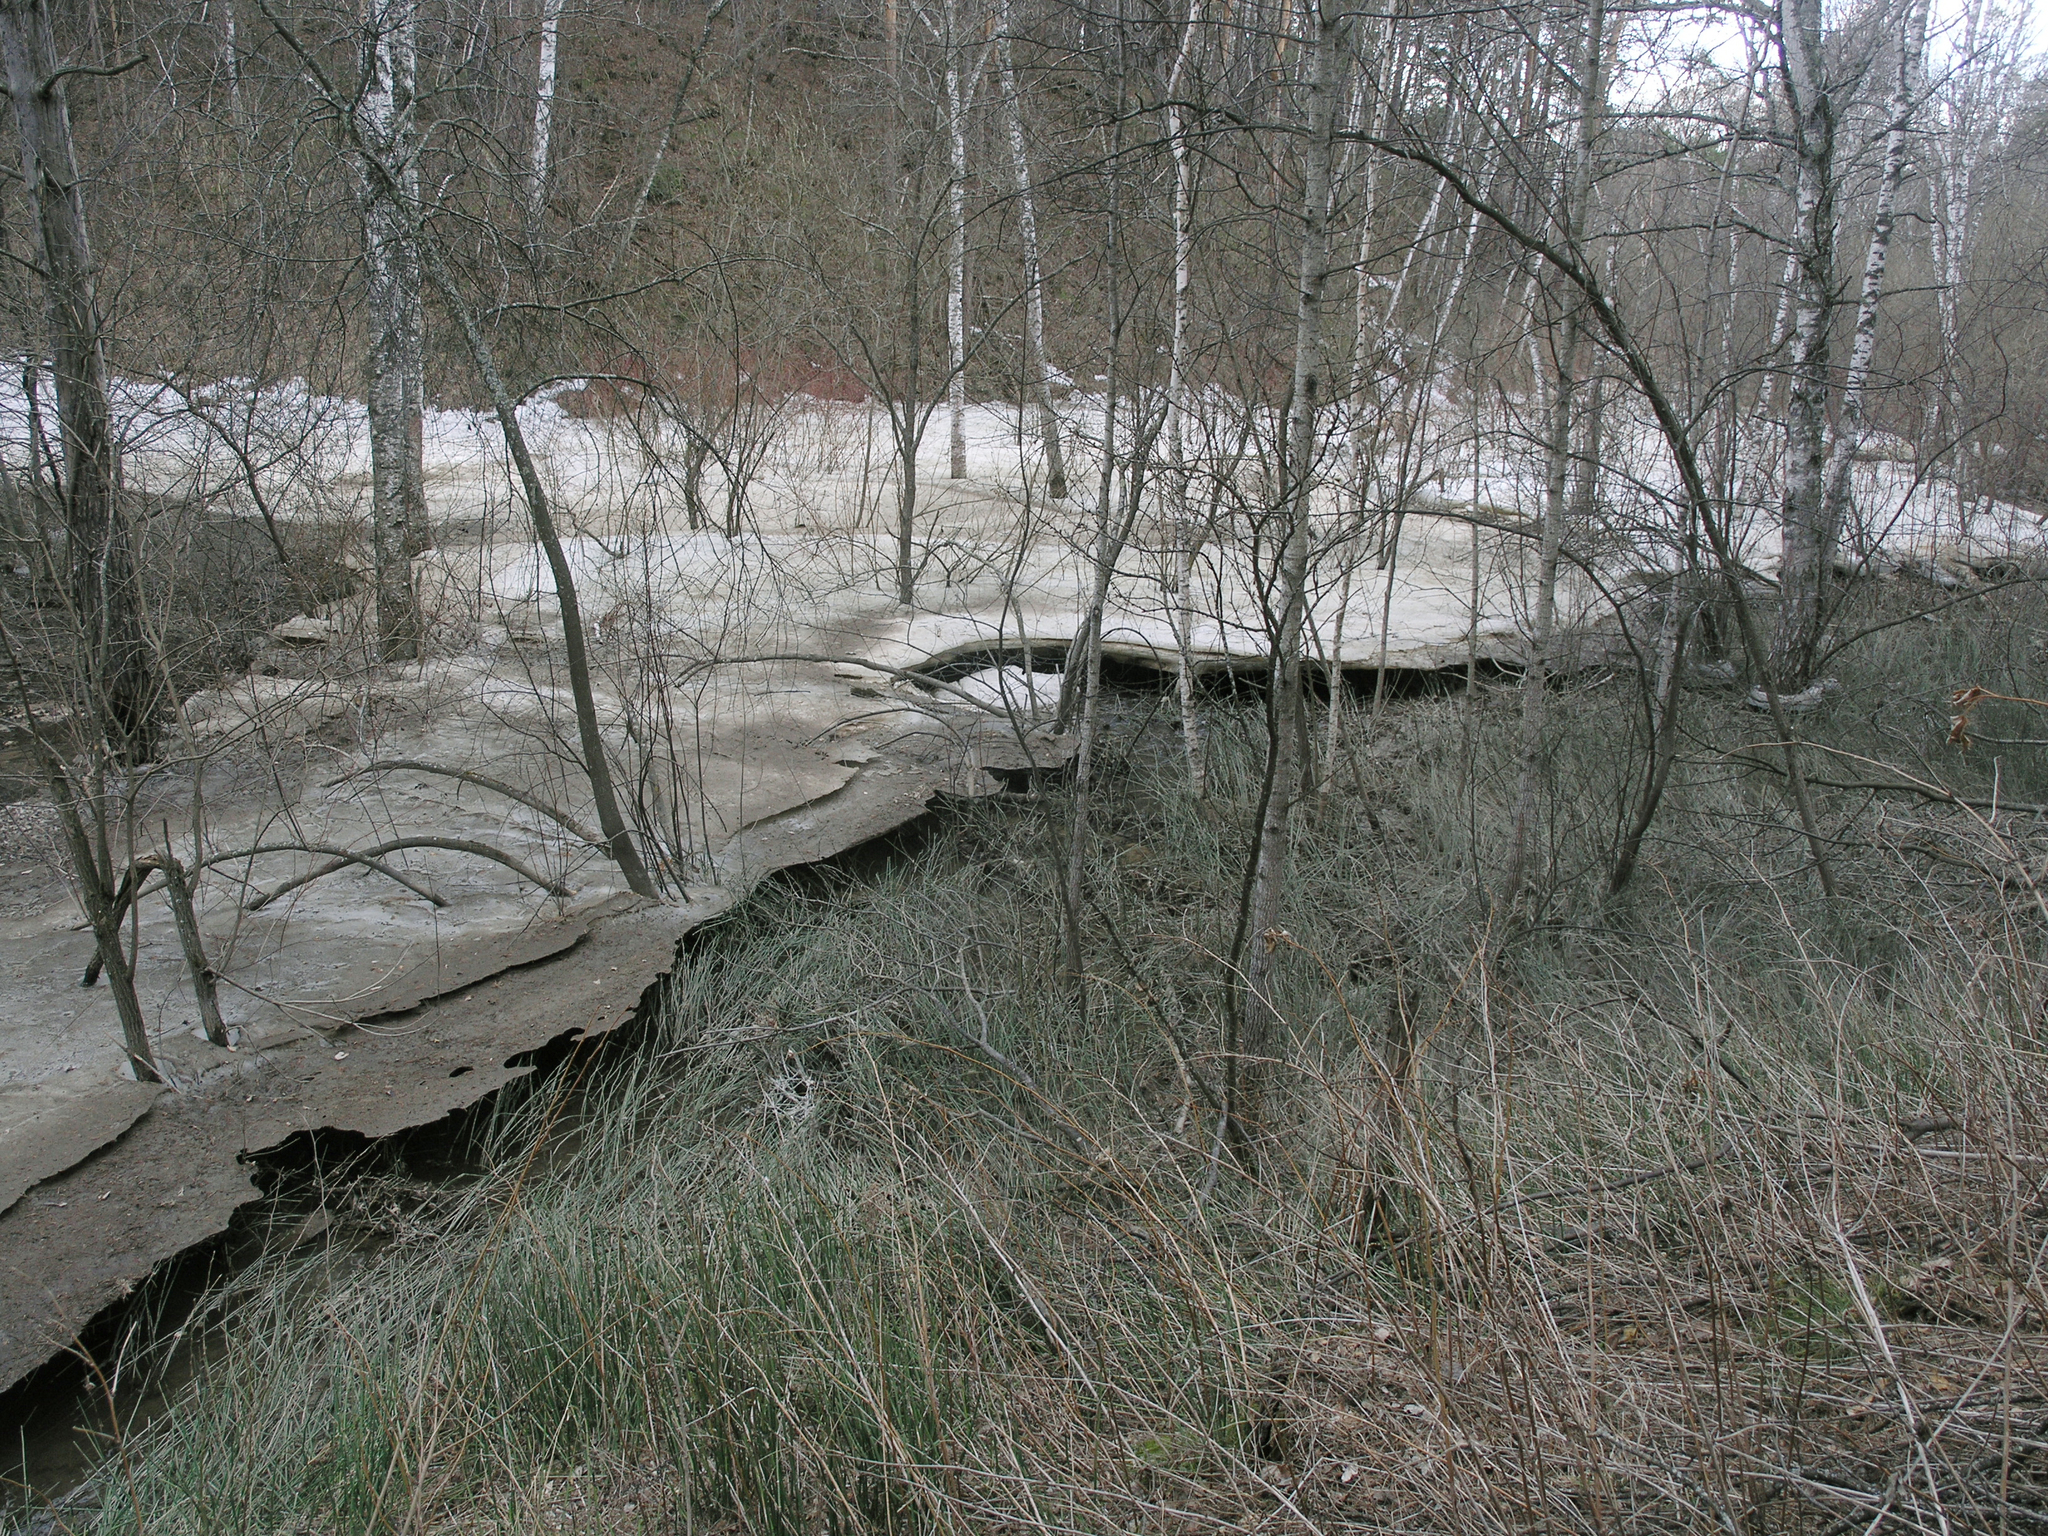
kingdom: Plantae
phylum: Tracheophyta
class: Polypodiopsida
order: Equisetales
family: Equisetaceae
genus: Equisetum
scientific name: Equisetum hyemale
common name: Rough horsetail
